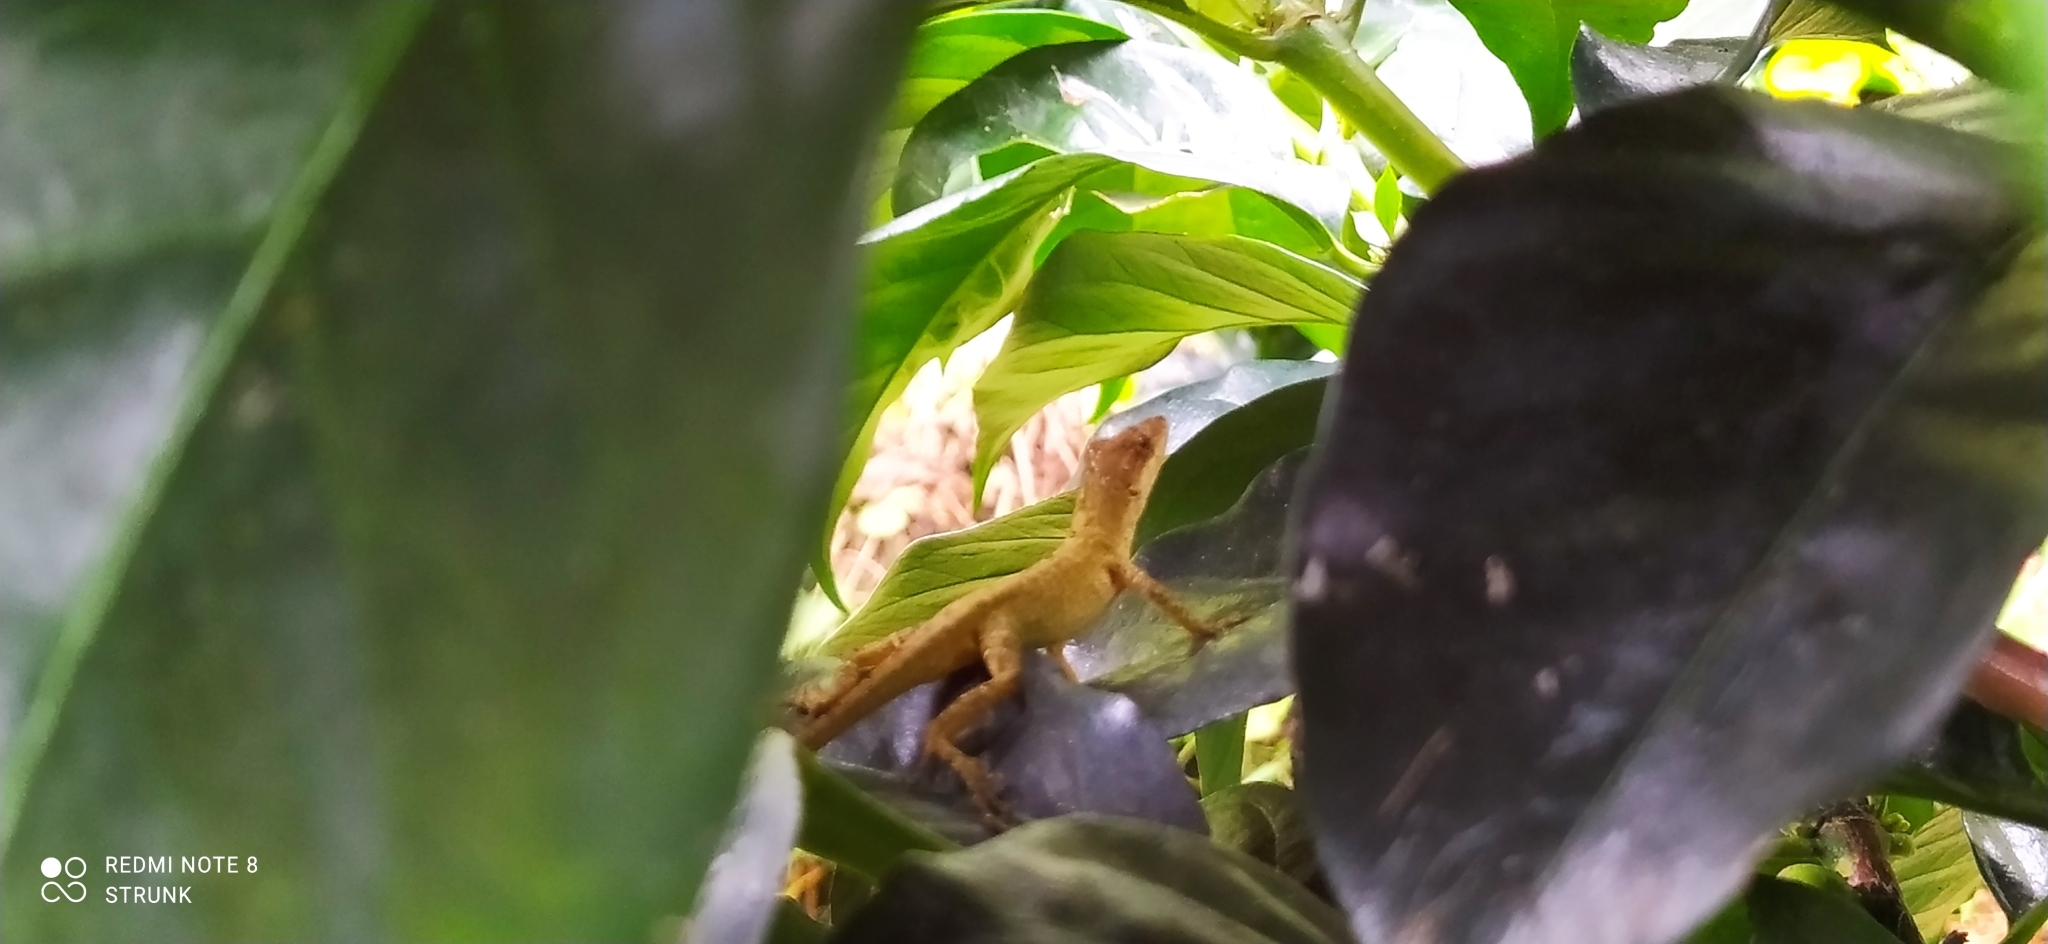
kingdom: Animalia
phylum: Chordata
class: Squamata
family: Dactyloidae
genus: Anolis
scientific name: Anolis tolimensis
